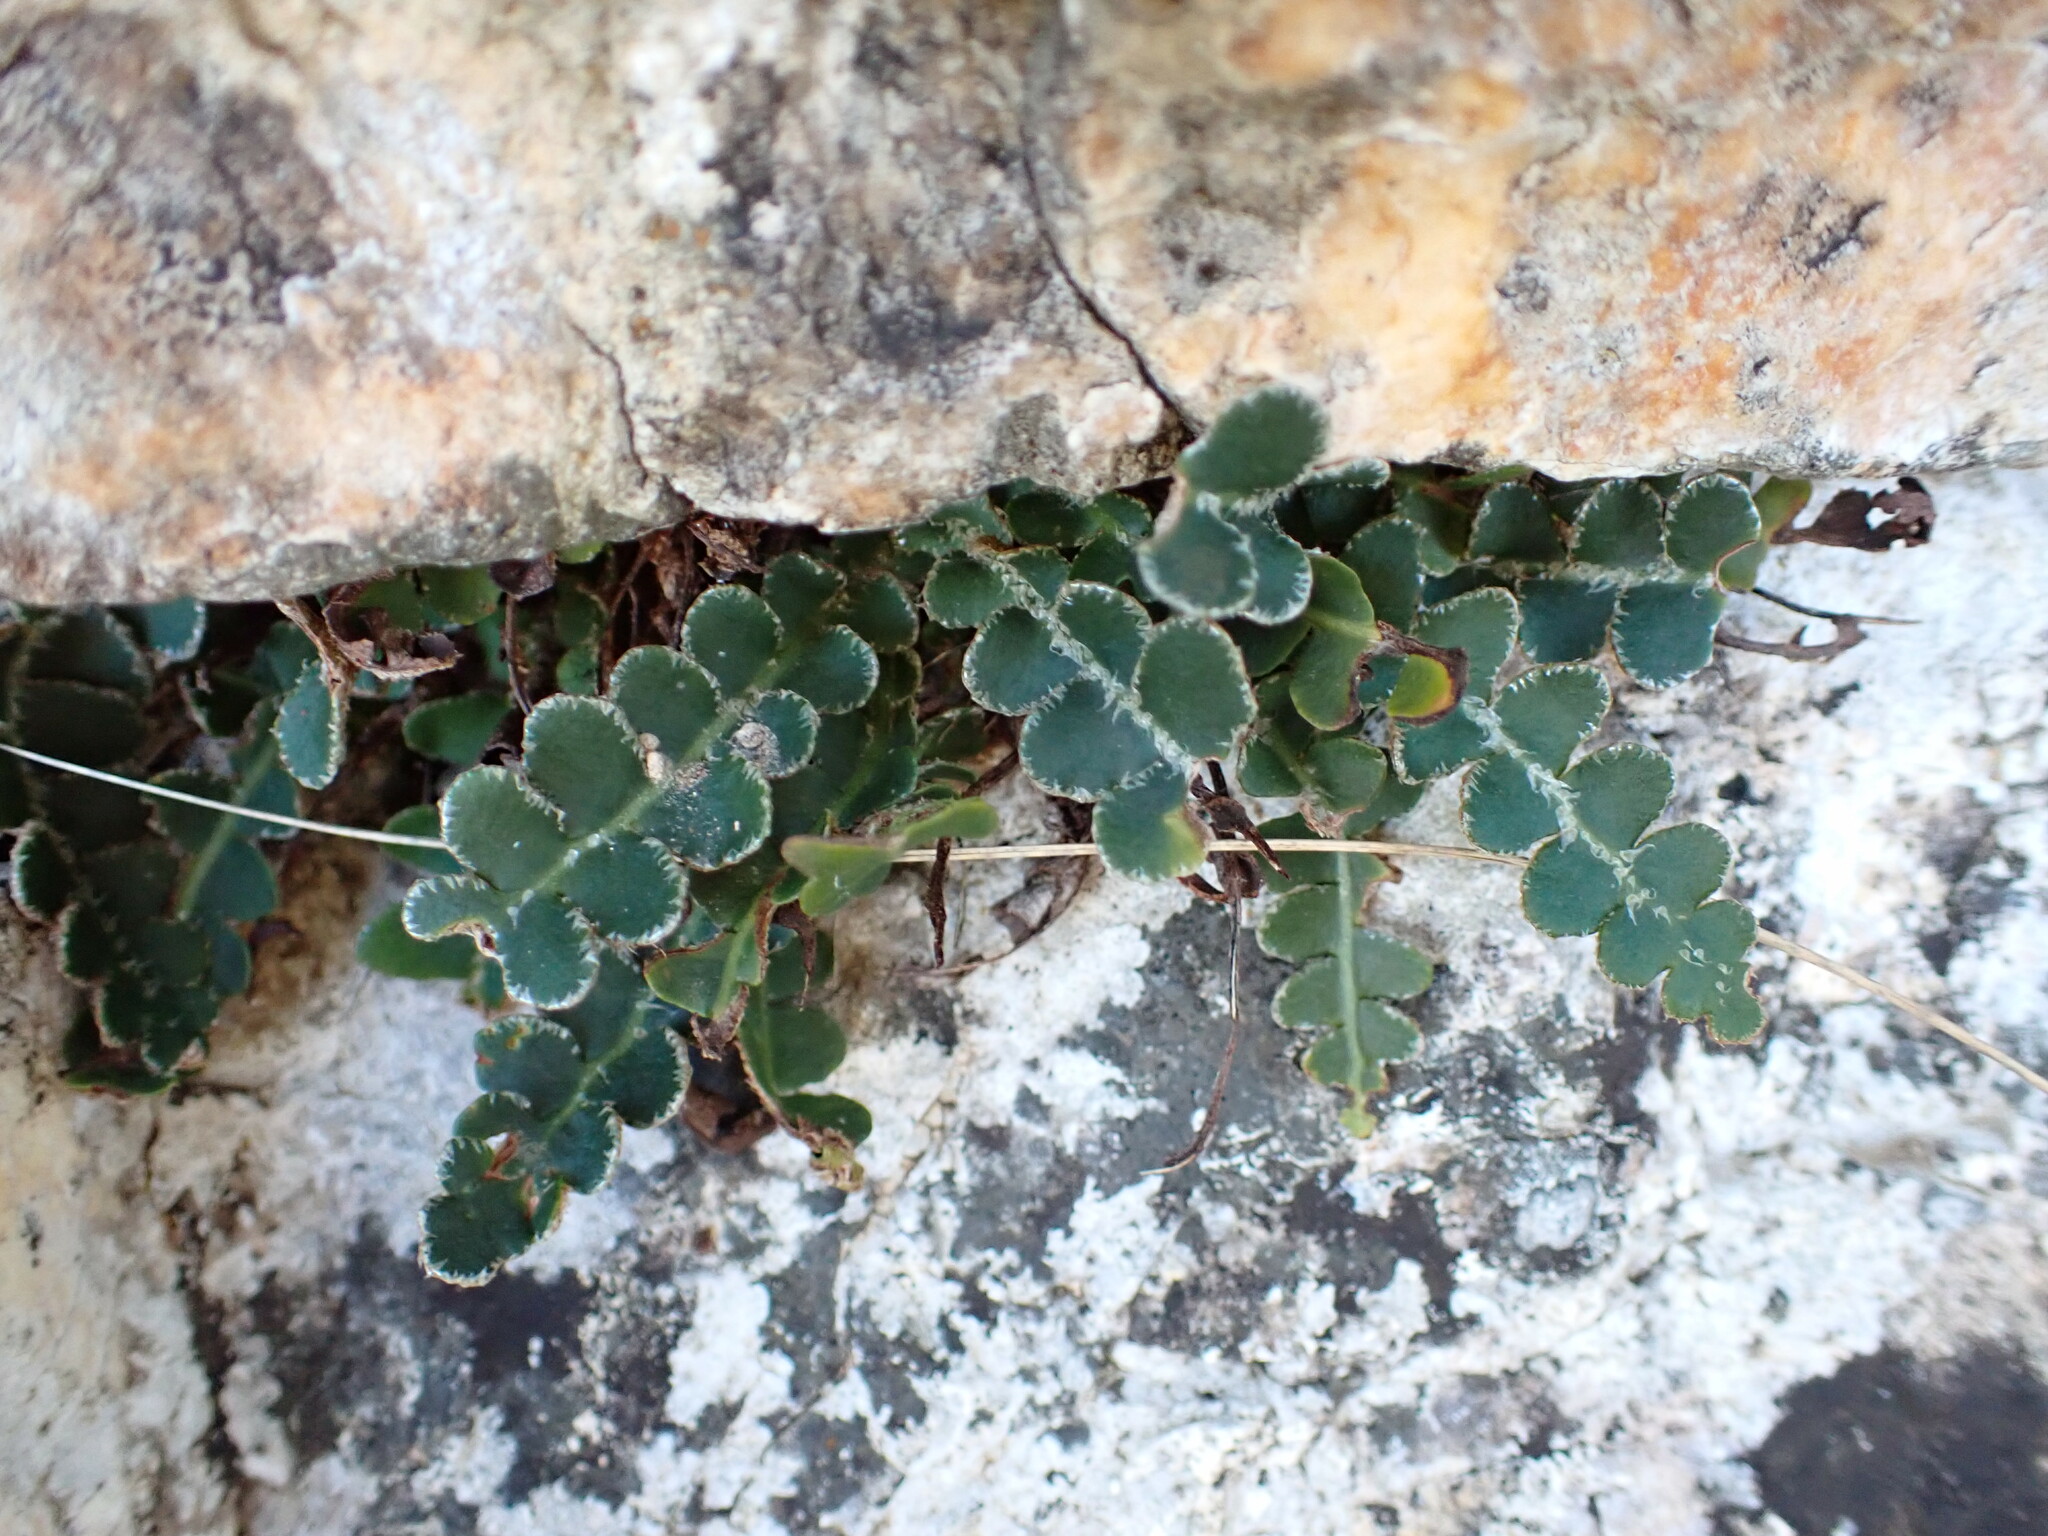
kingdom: Plantae
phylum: Tracheophyta
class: Polypodiopsida
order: Polypodiales
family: Aspleniaceae
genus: Asplenium
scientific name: Asplenium ceterach
